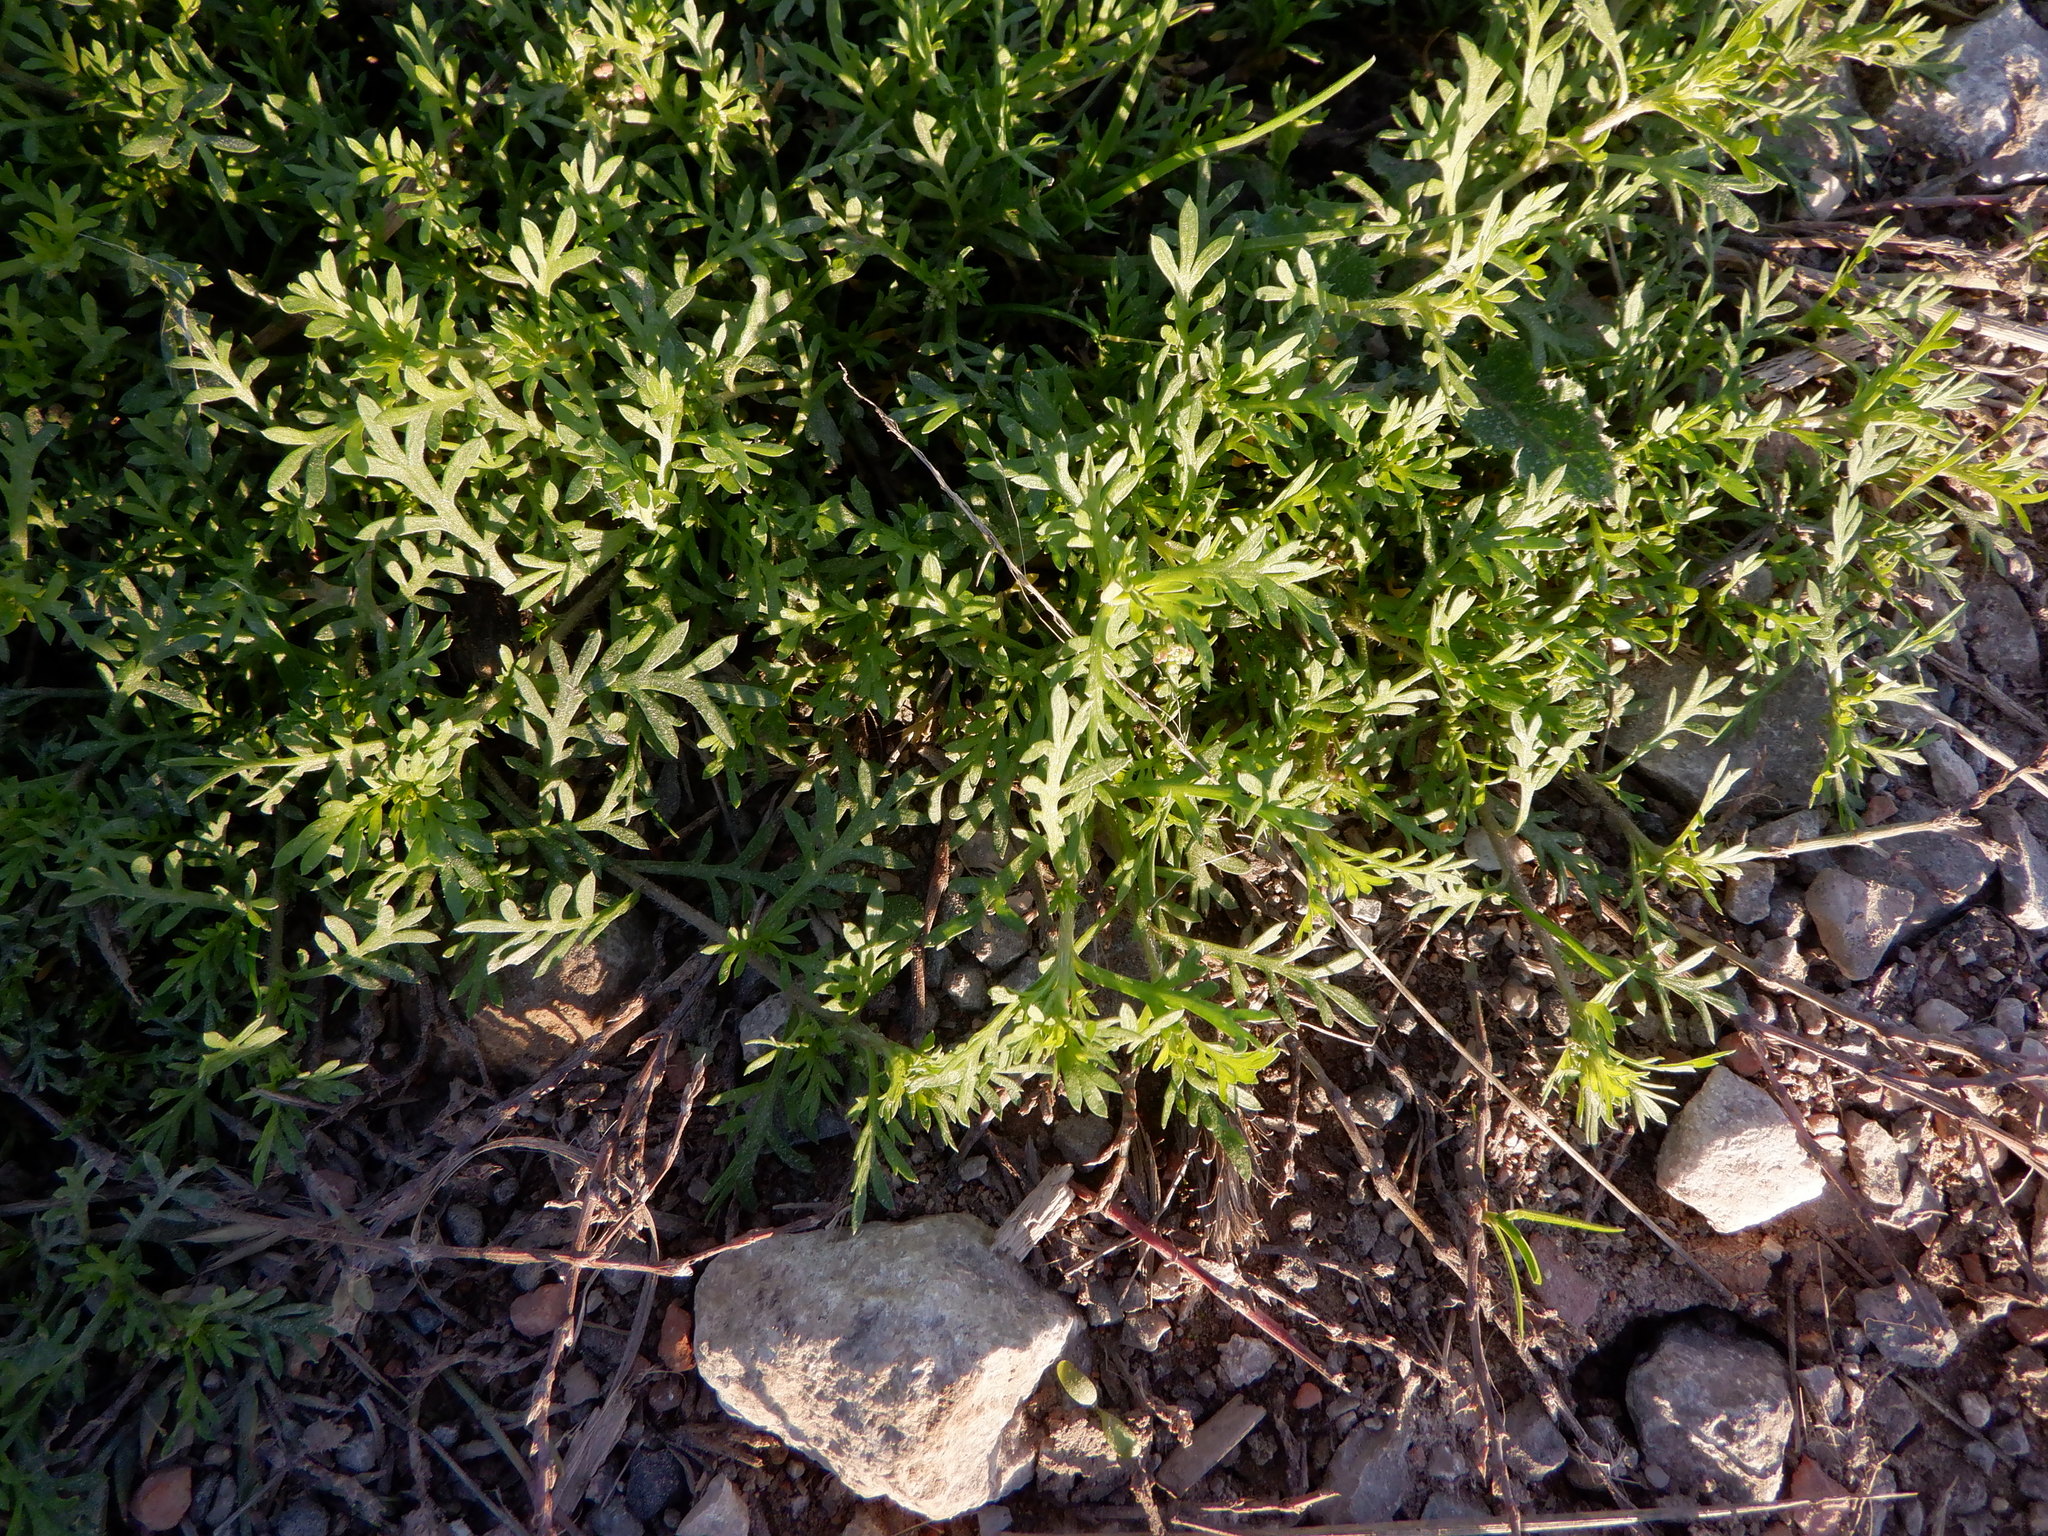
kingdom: Plantae
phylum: Tracheophyta
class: Magnoliopsida
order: Brassicales
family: Brassicaceae
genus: Lepidium
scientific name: Lepidium didymum
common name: Lesser swinecress
